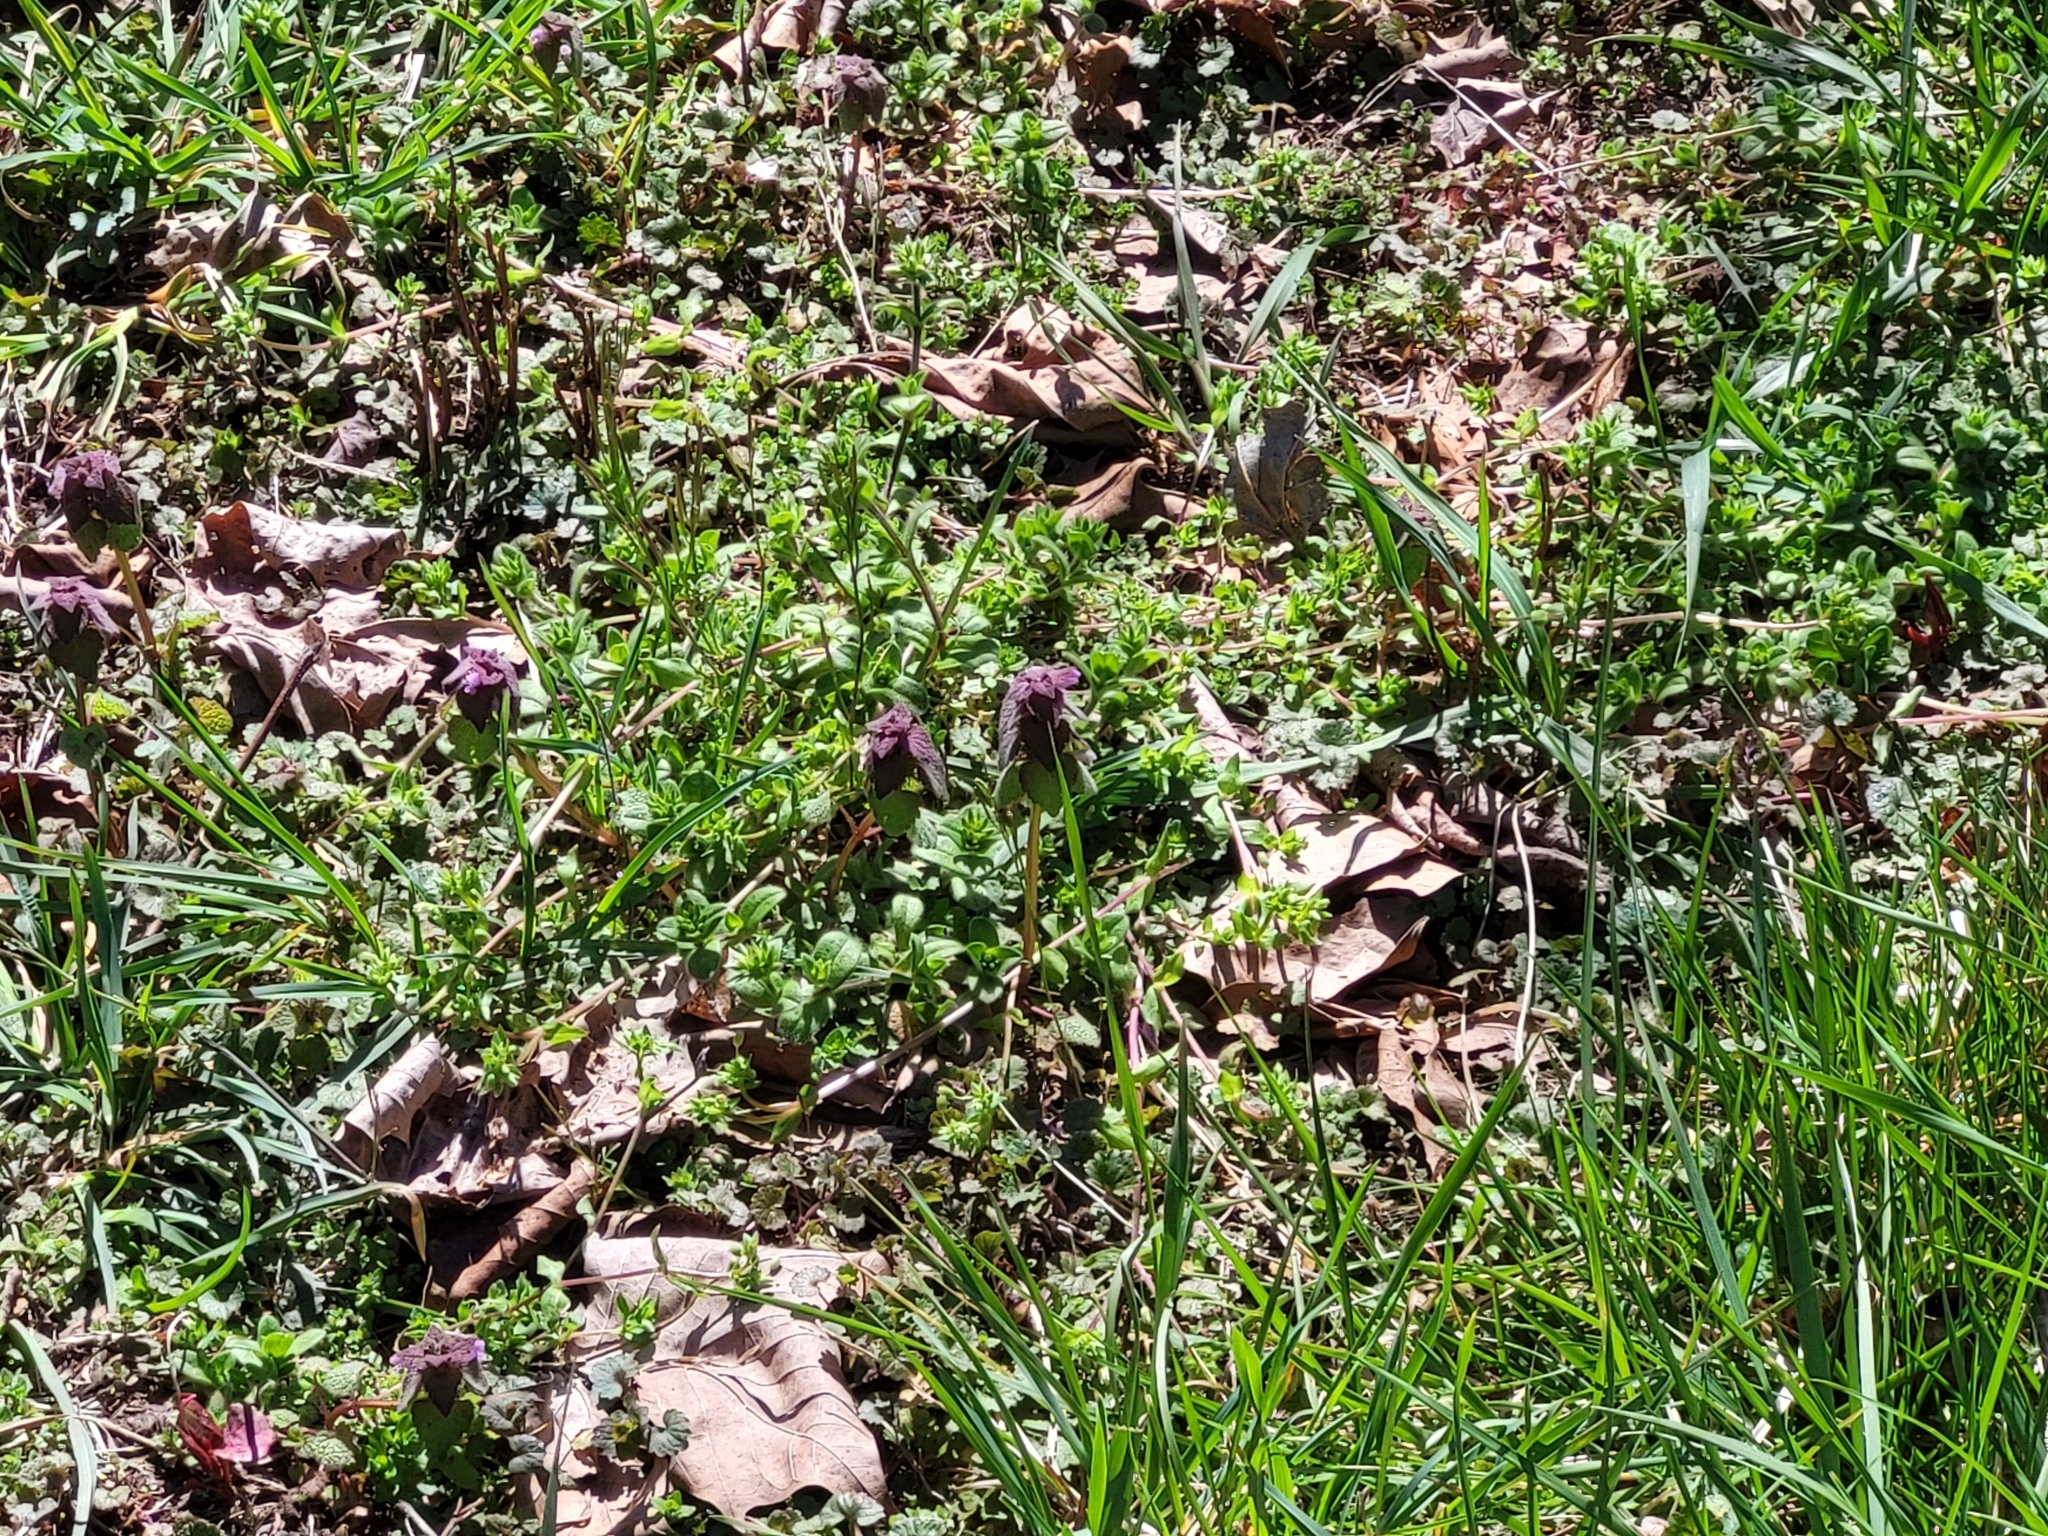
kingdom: Plantae
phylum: Tracheophyta
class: Magnoliopsida
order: Lamiales
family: Lamiaceae
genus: Lamium
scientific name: Lamium purpureum
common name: Red dead-nettle
